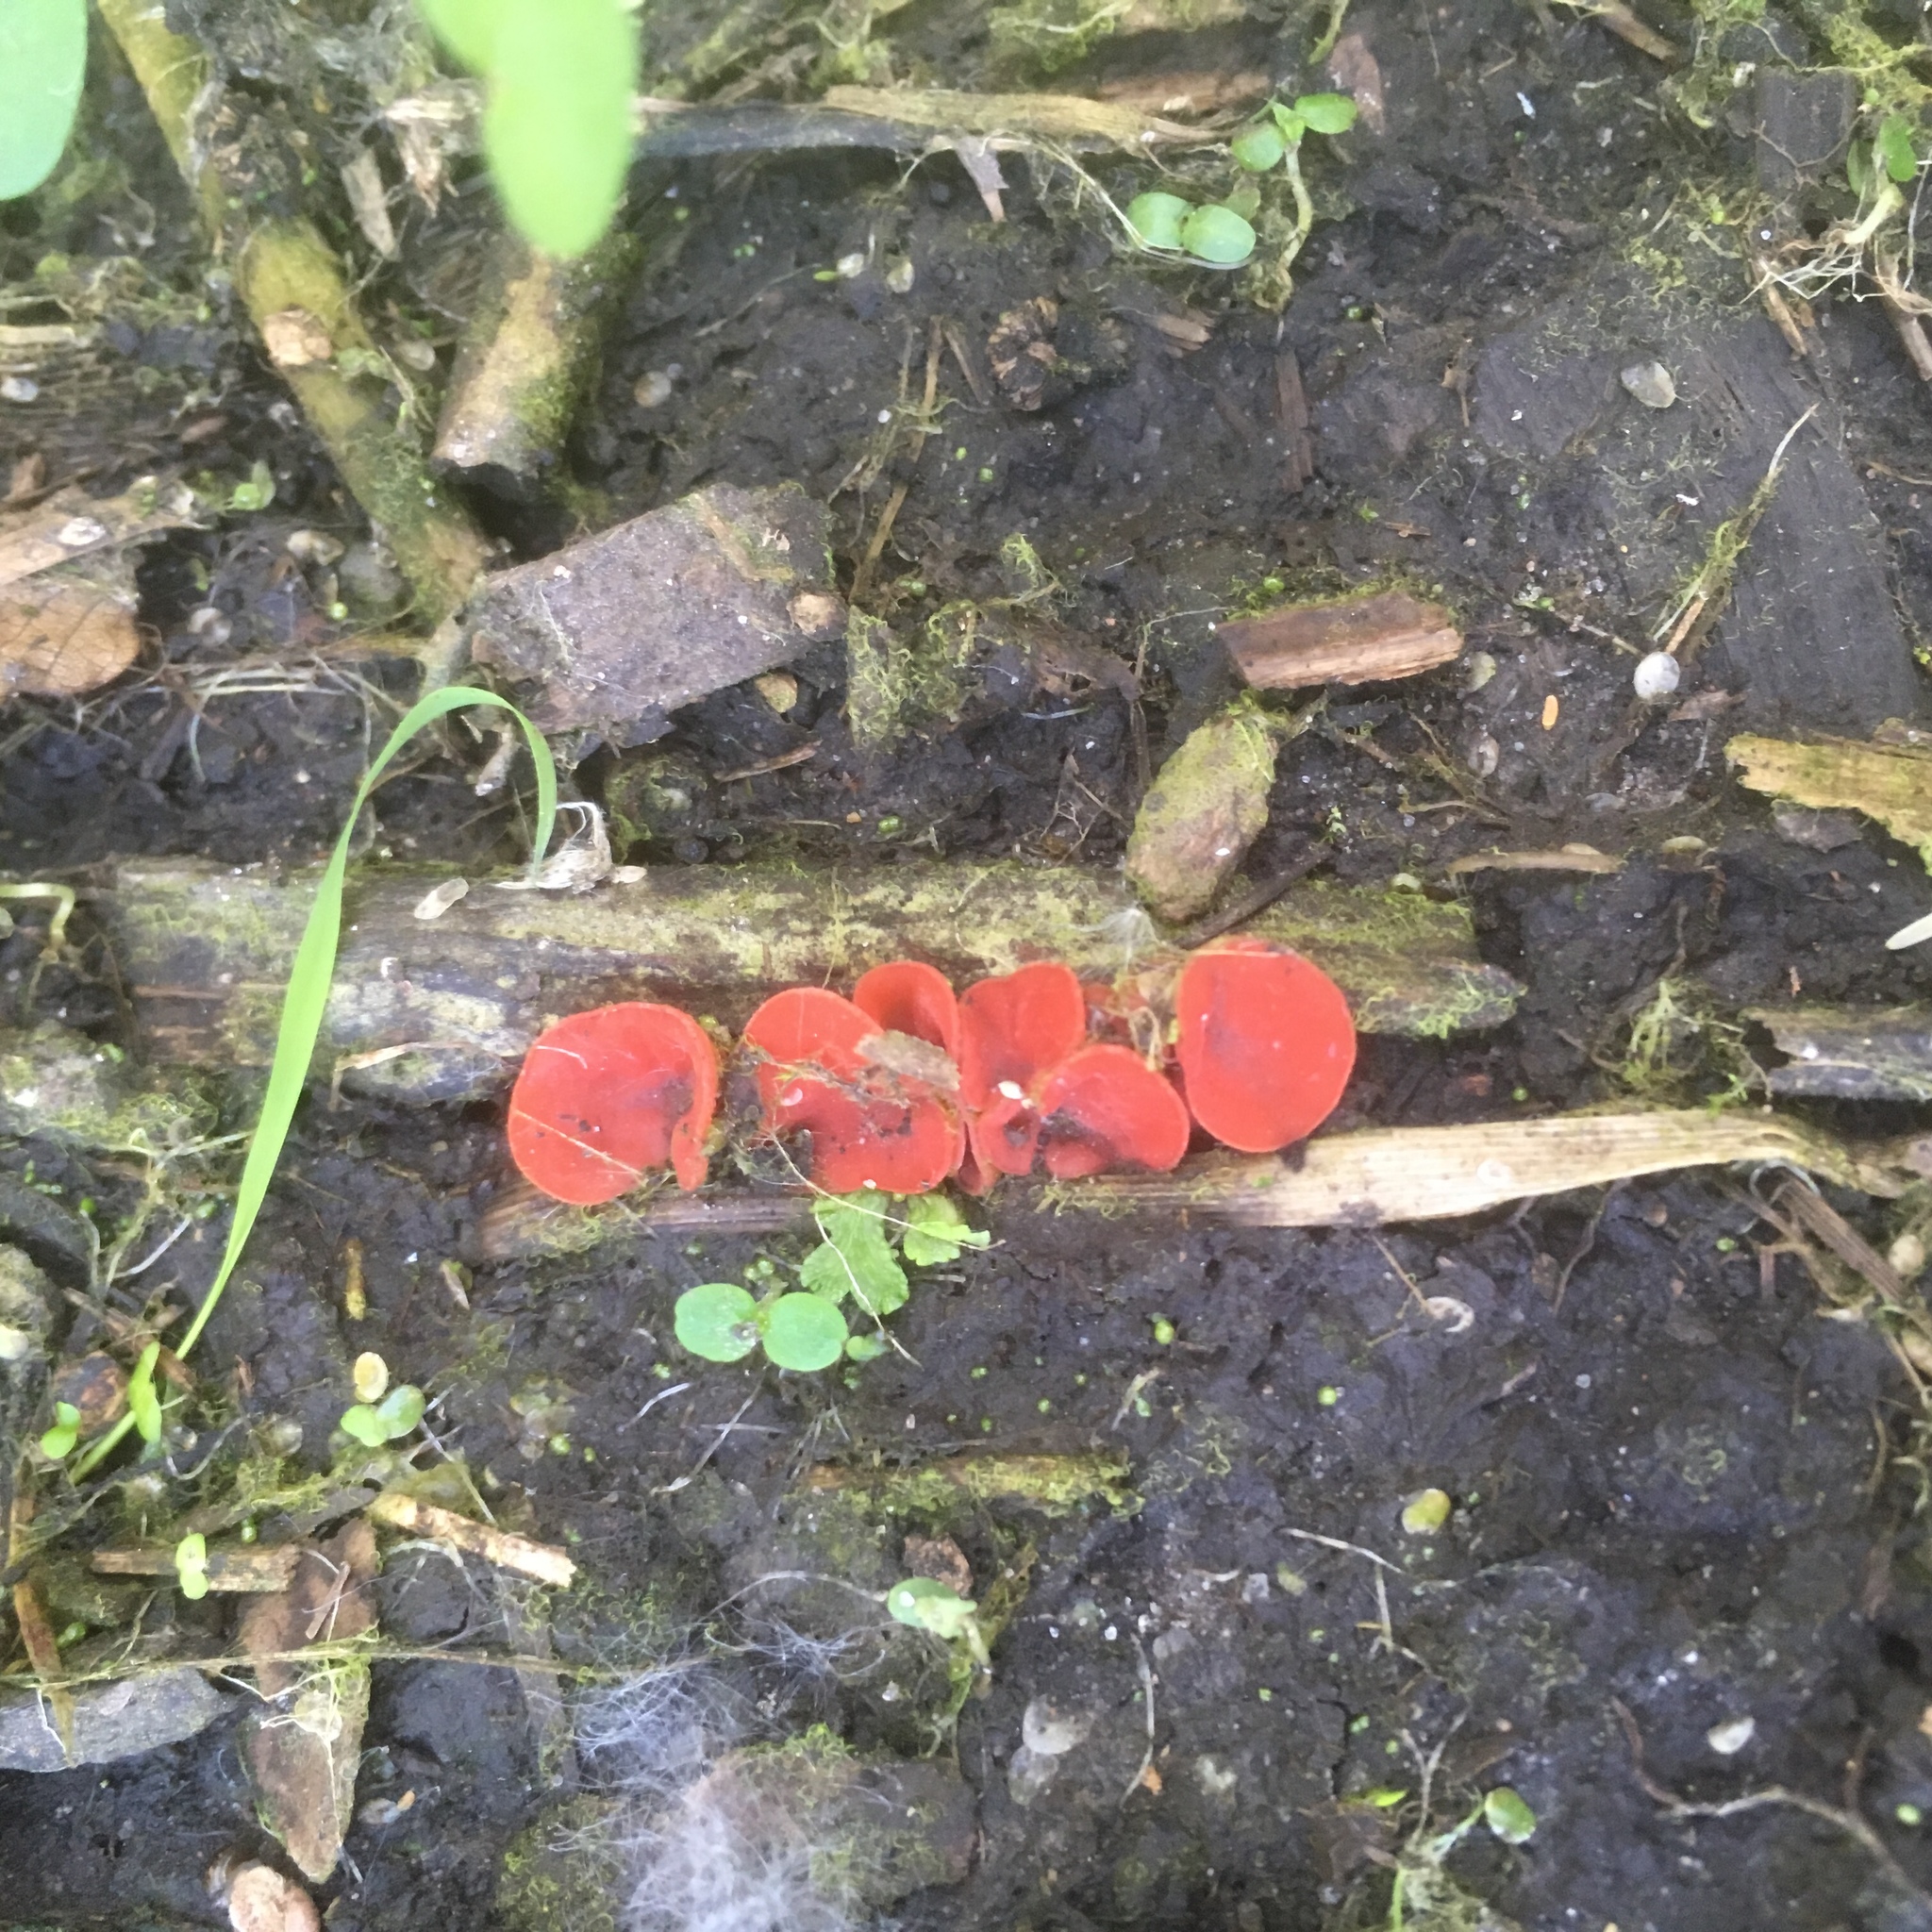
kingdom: Fungi
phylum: Ascomycota
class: Pezizomycetes
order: Pezizales
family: Sarcoscyphaceae
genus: Sarcoscypha
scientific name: Sarcoscypha occidentalis
